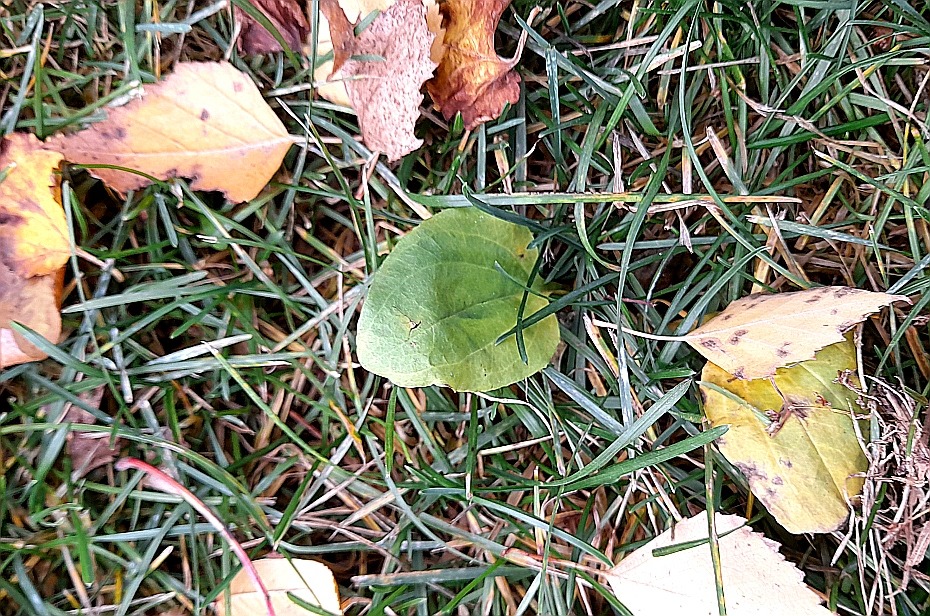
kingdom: Plantae
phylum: Tracheophyta
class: Magnoliopsida
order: Lamiales
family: Plantaginaceae
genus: Plantago
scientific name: Plantago major
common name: Common plantain
